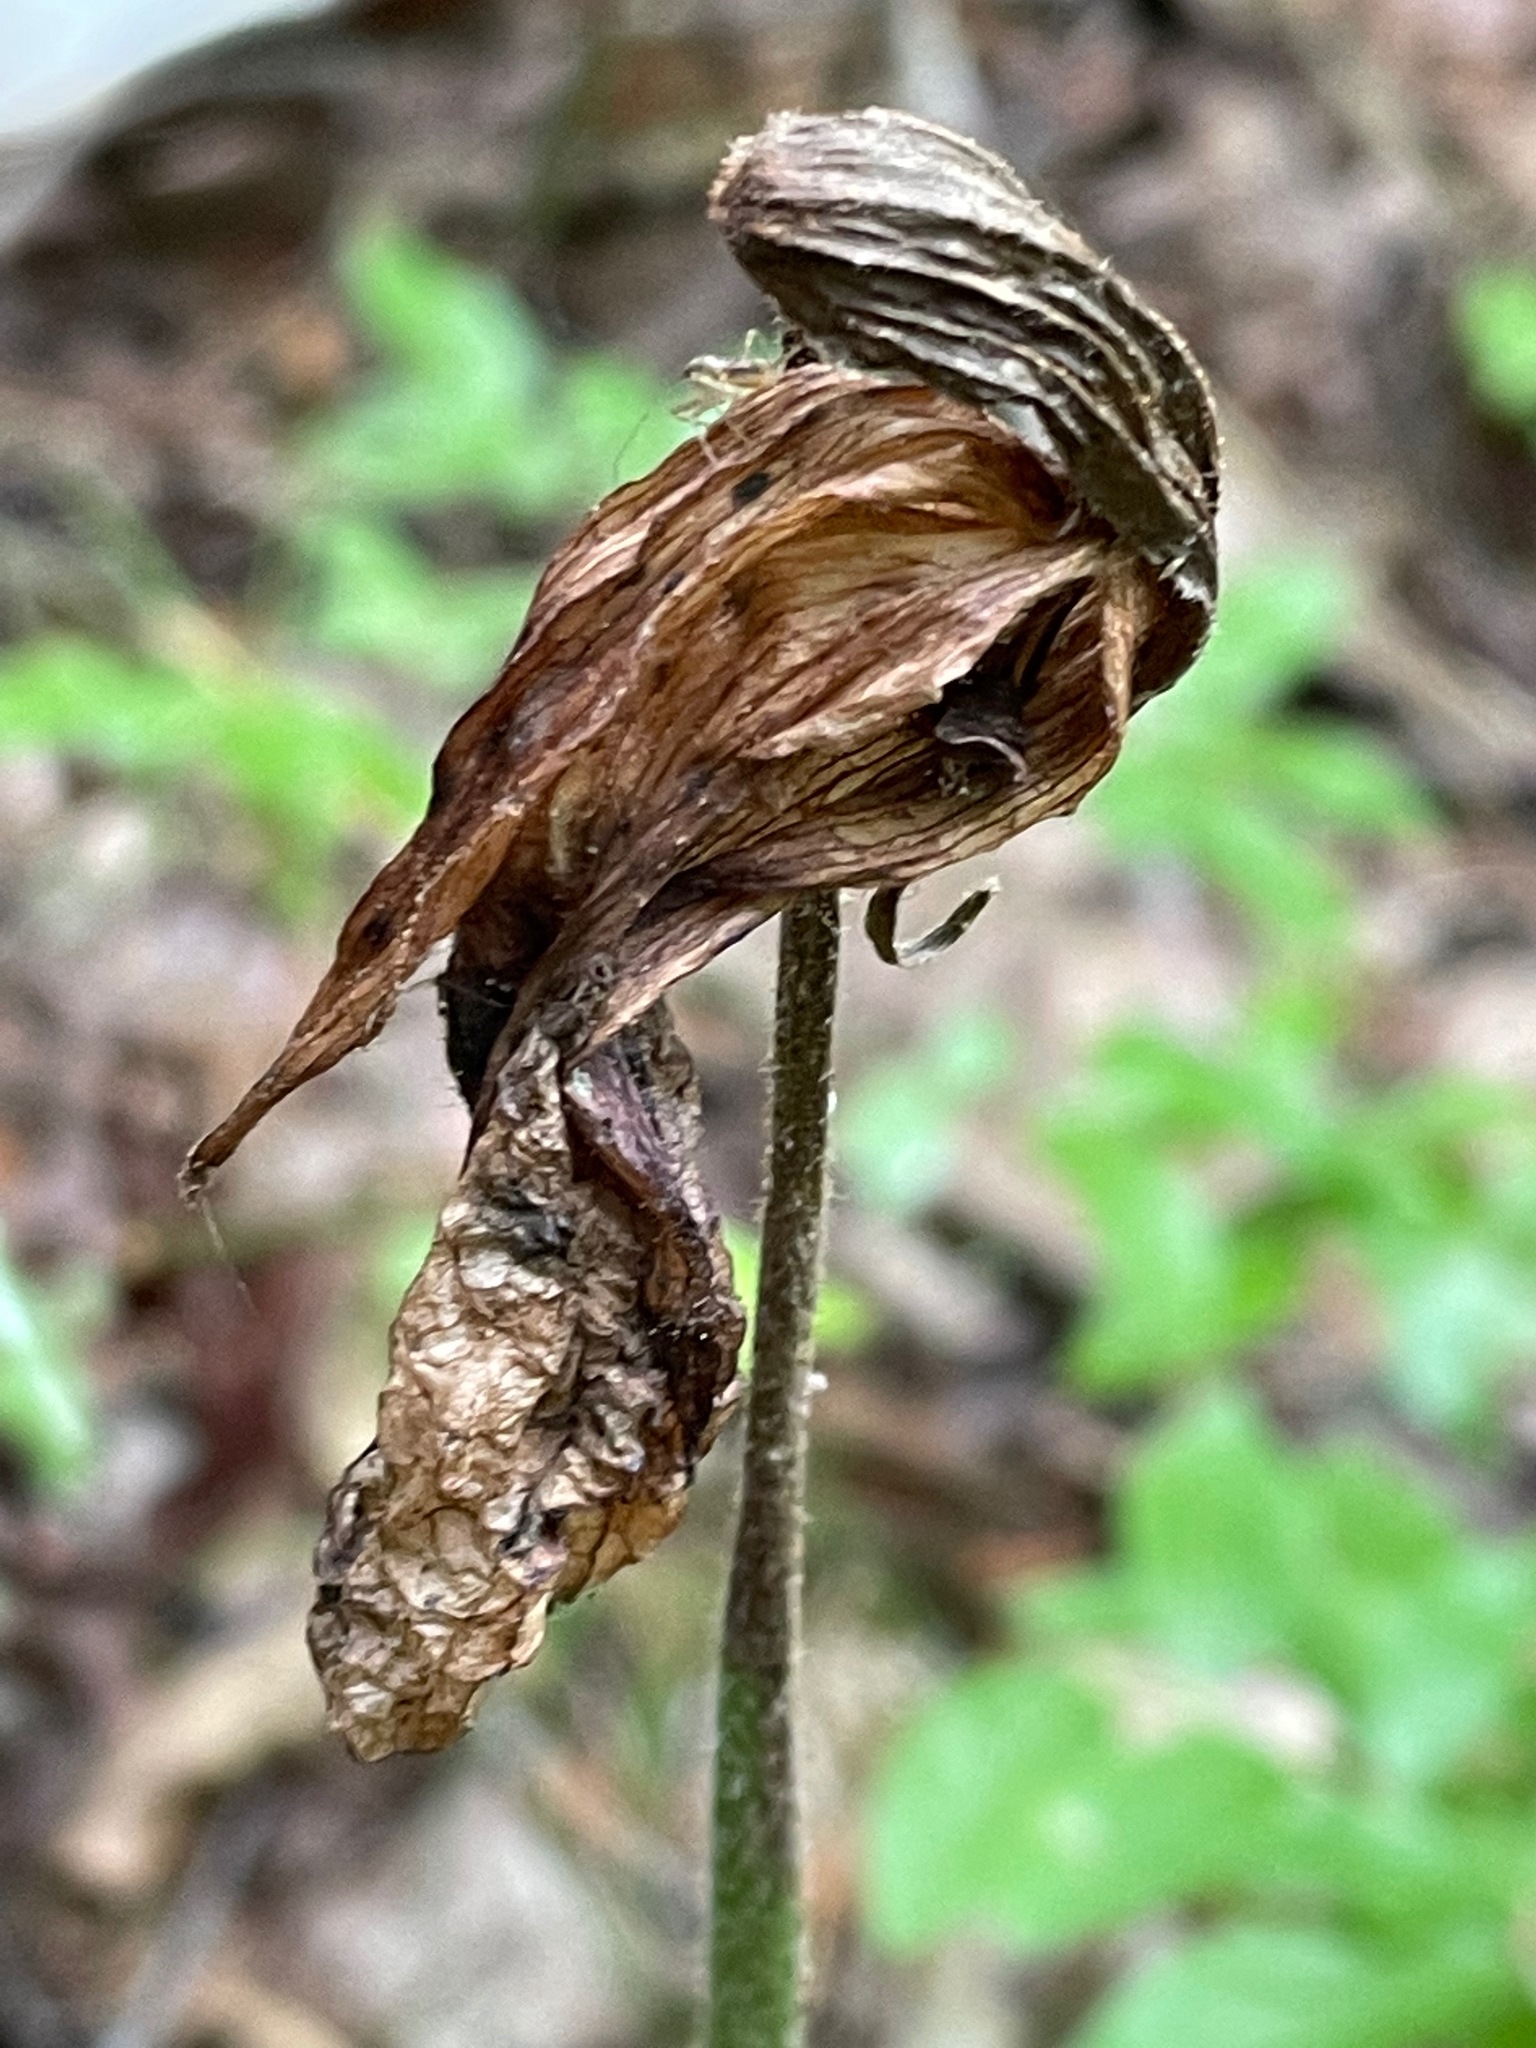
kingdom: Plantae
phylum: Tracheophyta
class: Liliopsida
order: Asparagales
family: Orchidaceae
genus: Cypripedium
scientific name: Cypripedium acaule
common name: Pink lady's-slipper
